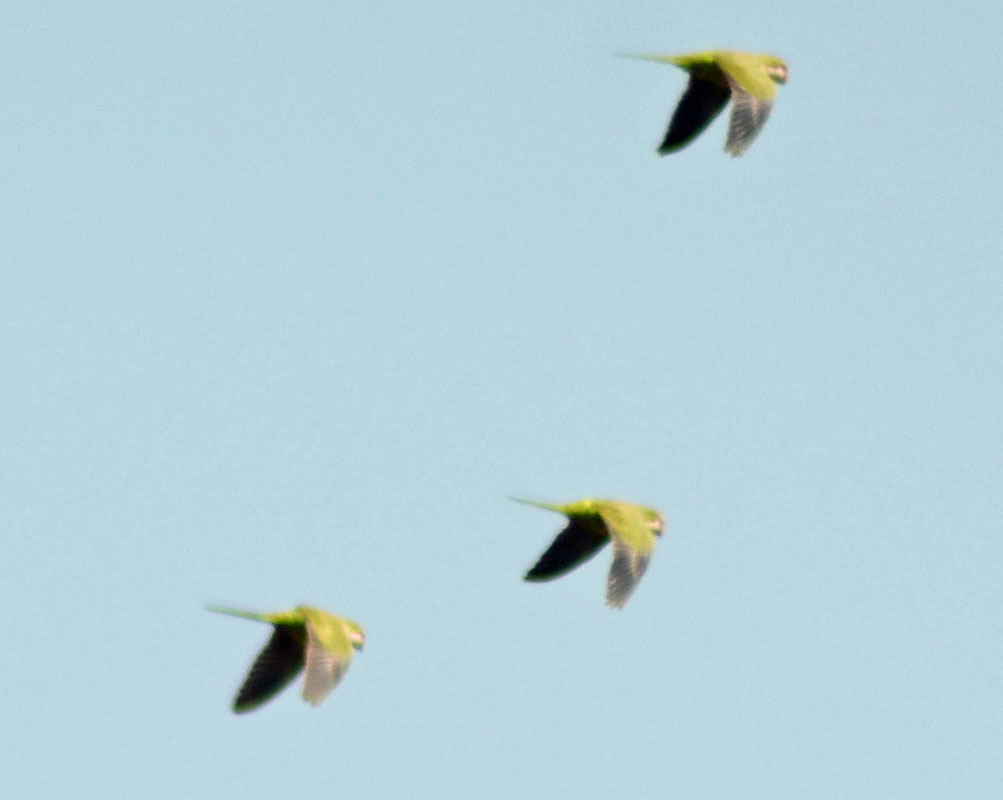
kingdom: Animalia
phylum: Chordata
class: Aves
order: Psittaciformes
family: Psittacidae
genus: Myiopsitta
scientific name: Myiopsitta monachus
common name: Monk parakeet
